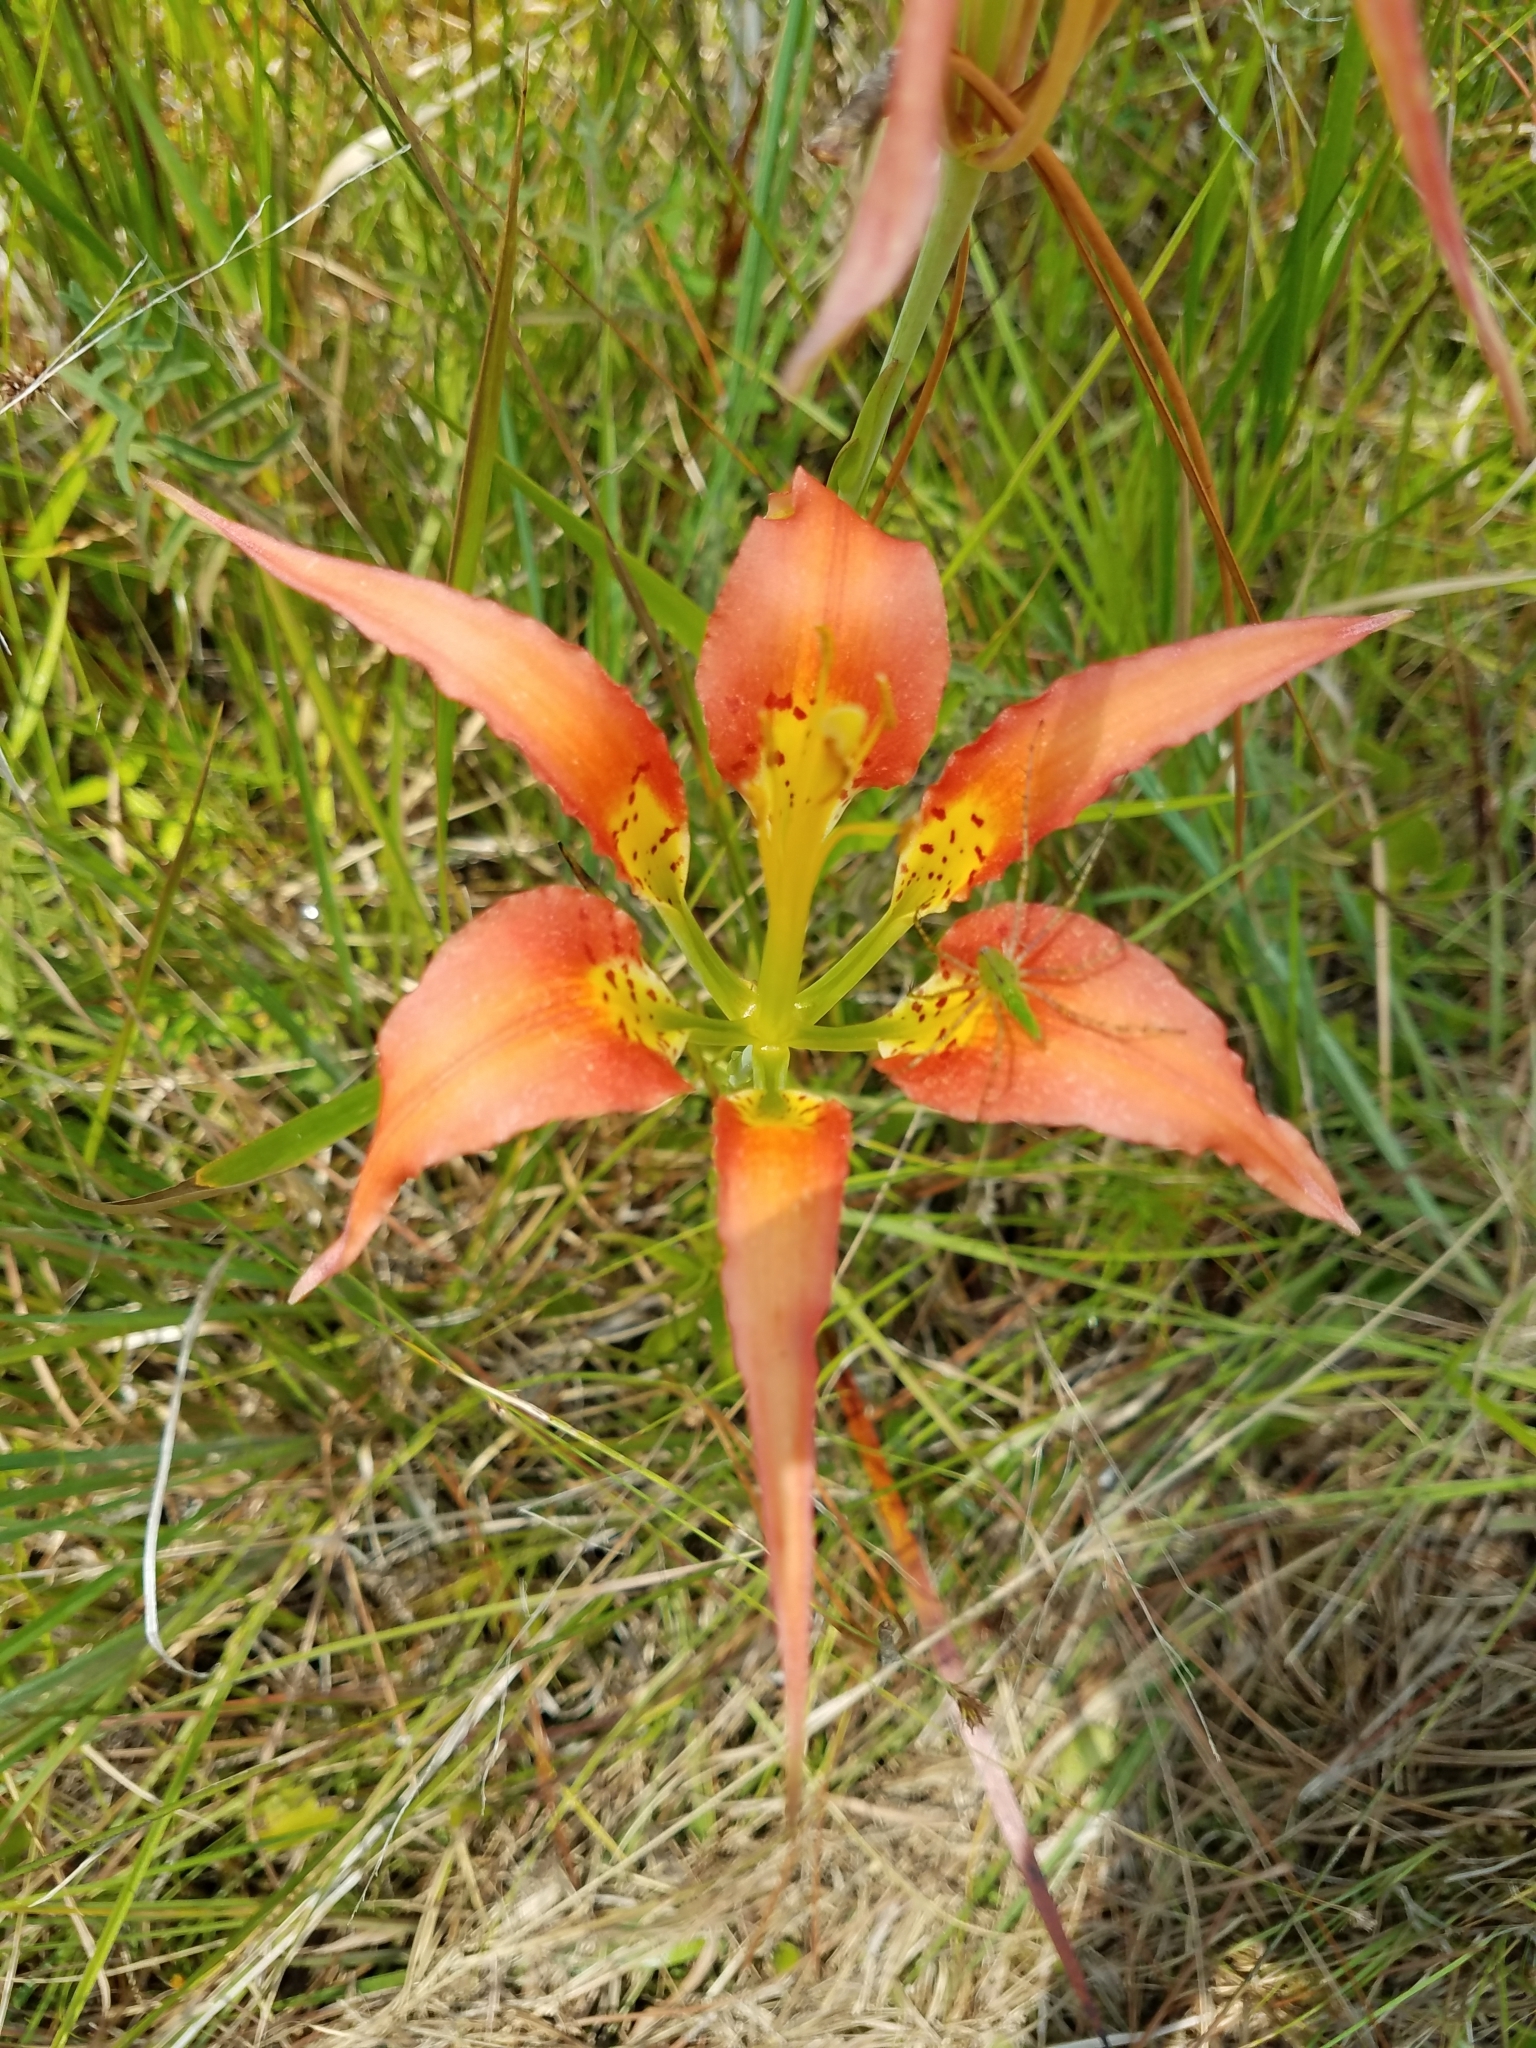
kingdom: Plantae
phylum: Tracheophyta
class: Liliopsida
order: Liliales
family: Liliaceae
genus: Lilium
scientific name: Lilium catesbaei
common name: Catesby's lily
